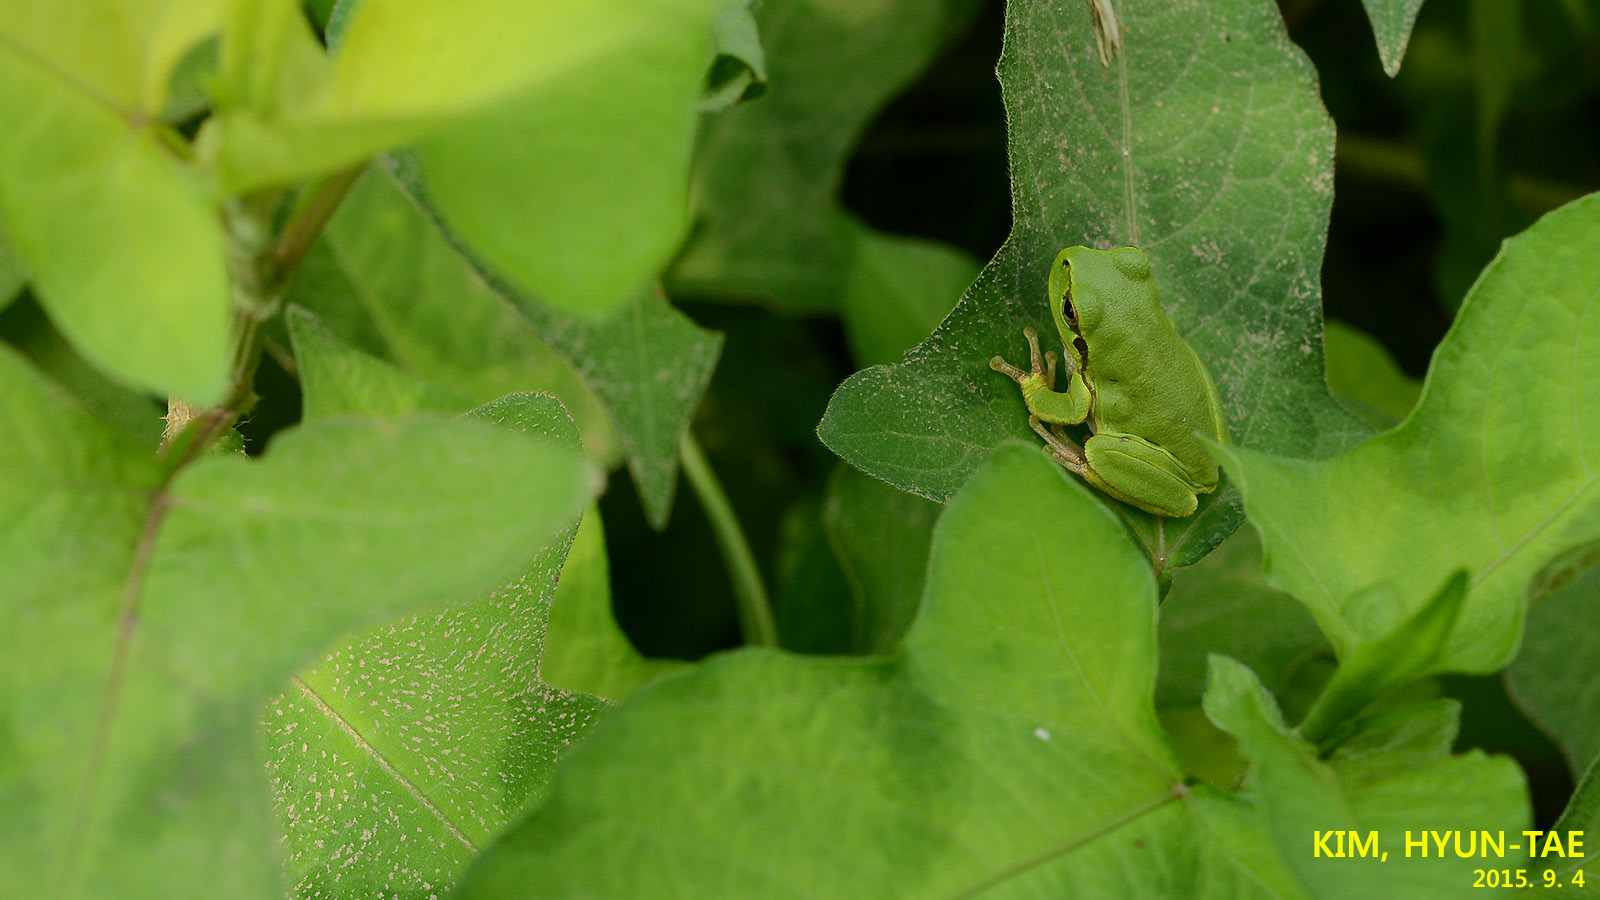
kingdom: Animalia
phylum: Chordata
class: Amphibia
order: Anura
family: Hylidae
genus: Dryophytes
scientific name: Dryophytes japonicus
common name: Japanese treefrog
